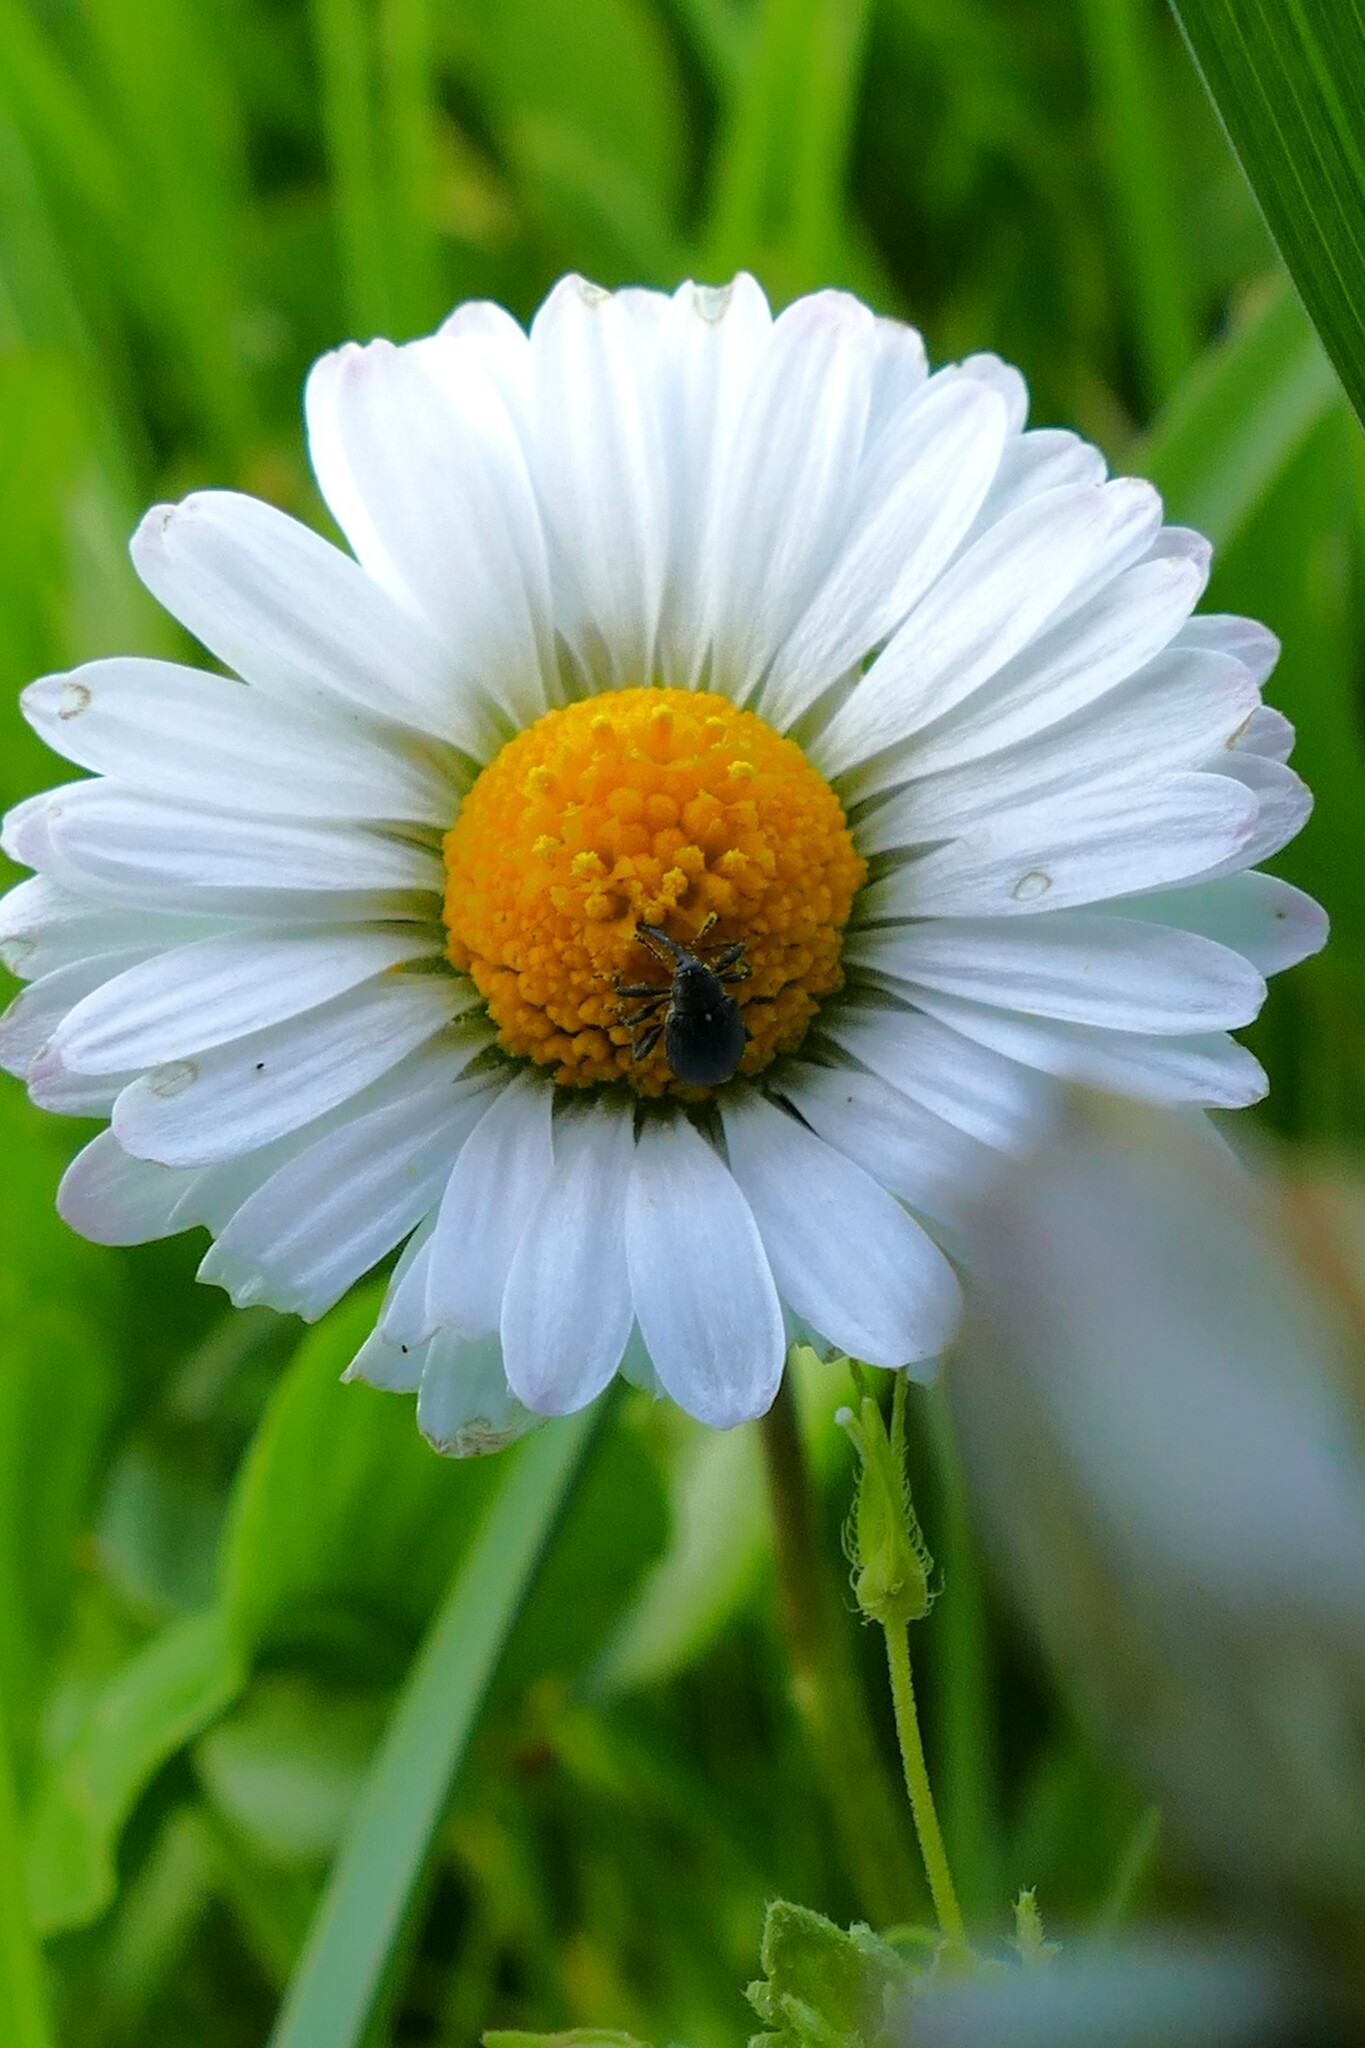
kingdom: Animalia
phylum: Arthropoda
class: Insecta
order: Coleoptera
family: Curculionidae
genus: Anthonomus
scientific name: Anthonomus rubi
